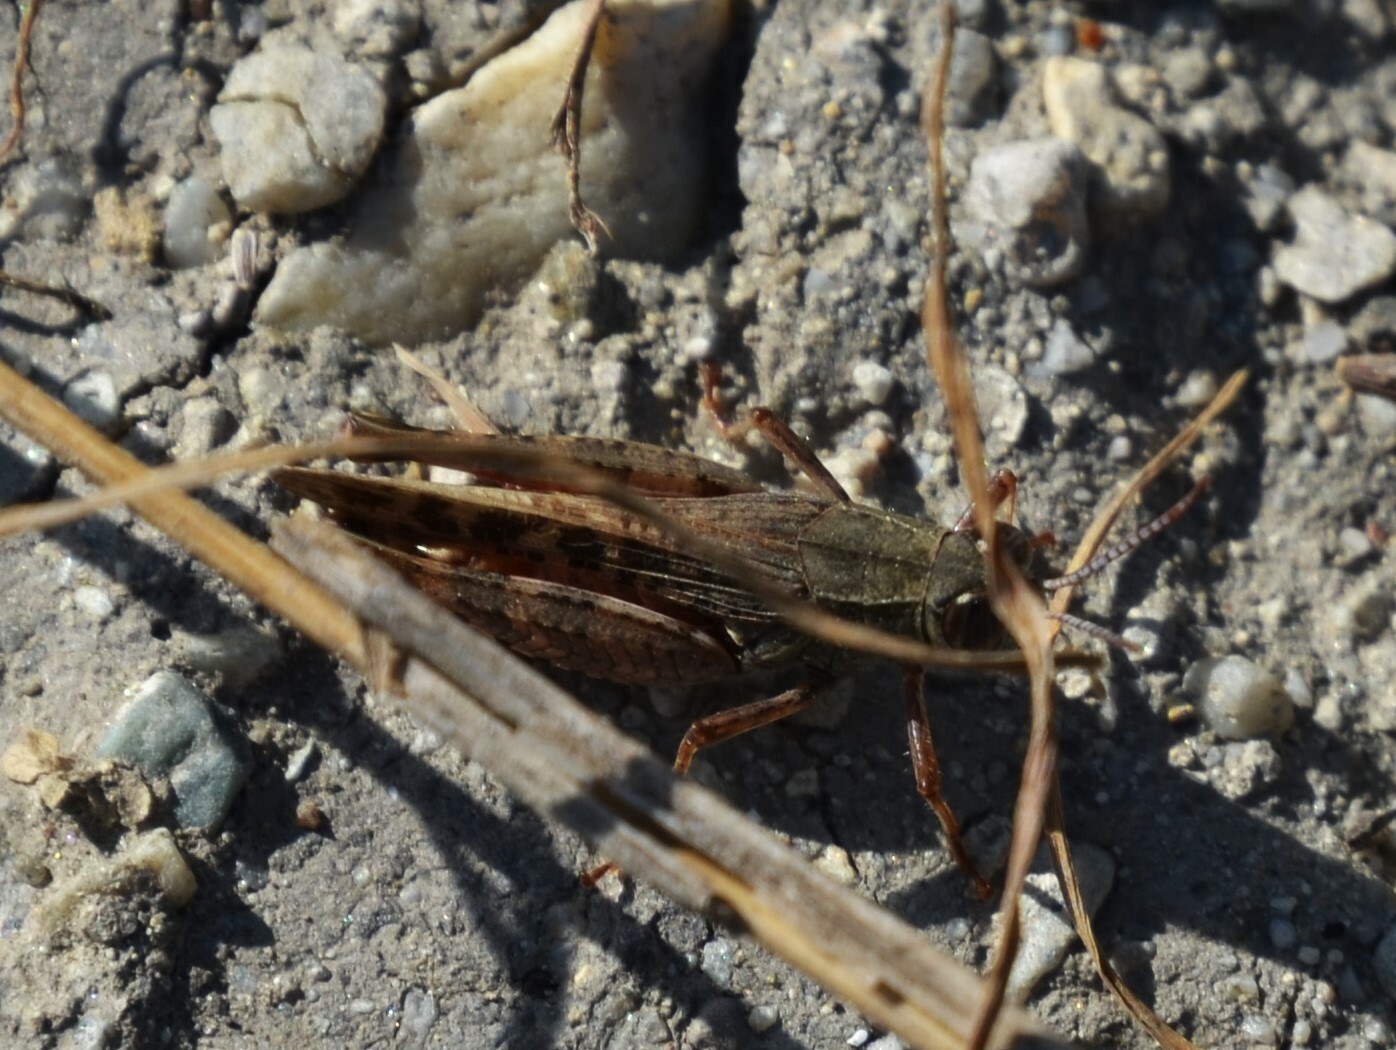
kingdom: Animalia
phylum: Arthropoda
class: Insecta
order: Orthoptera
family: Acrididae
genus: Calliptamus
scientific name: Calliptamus italicus
